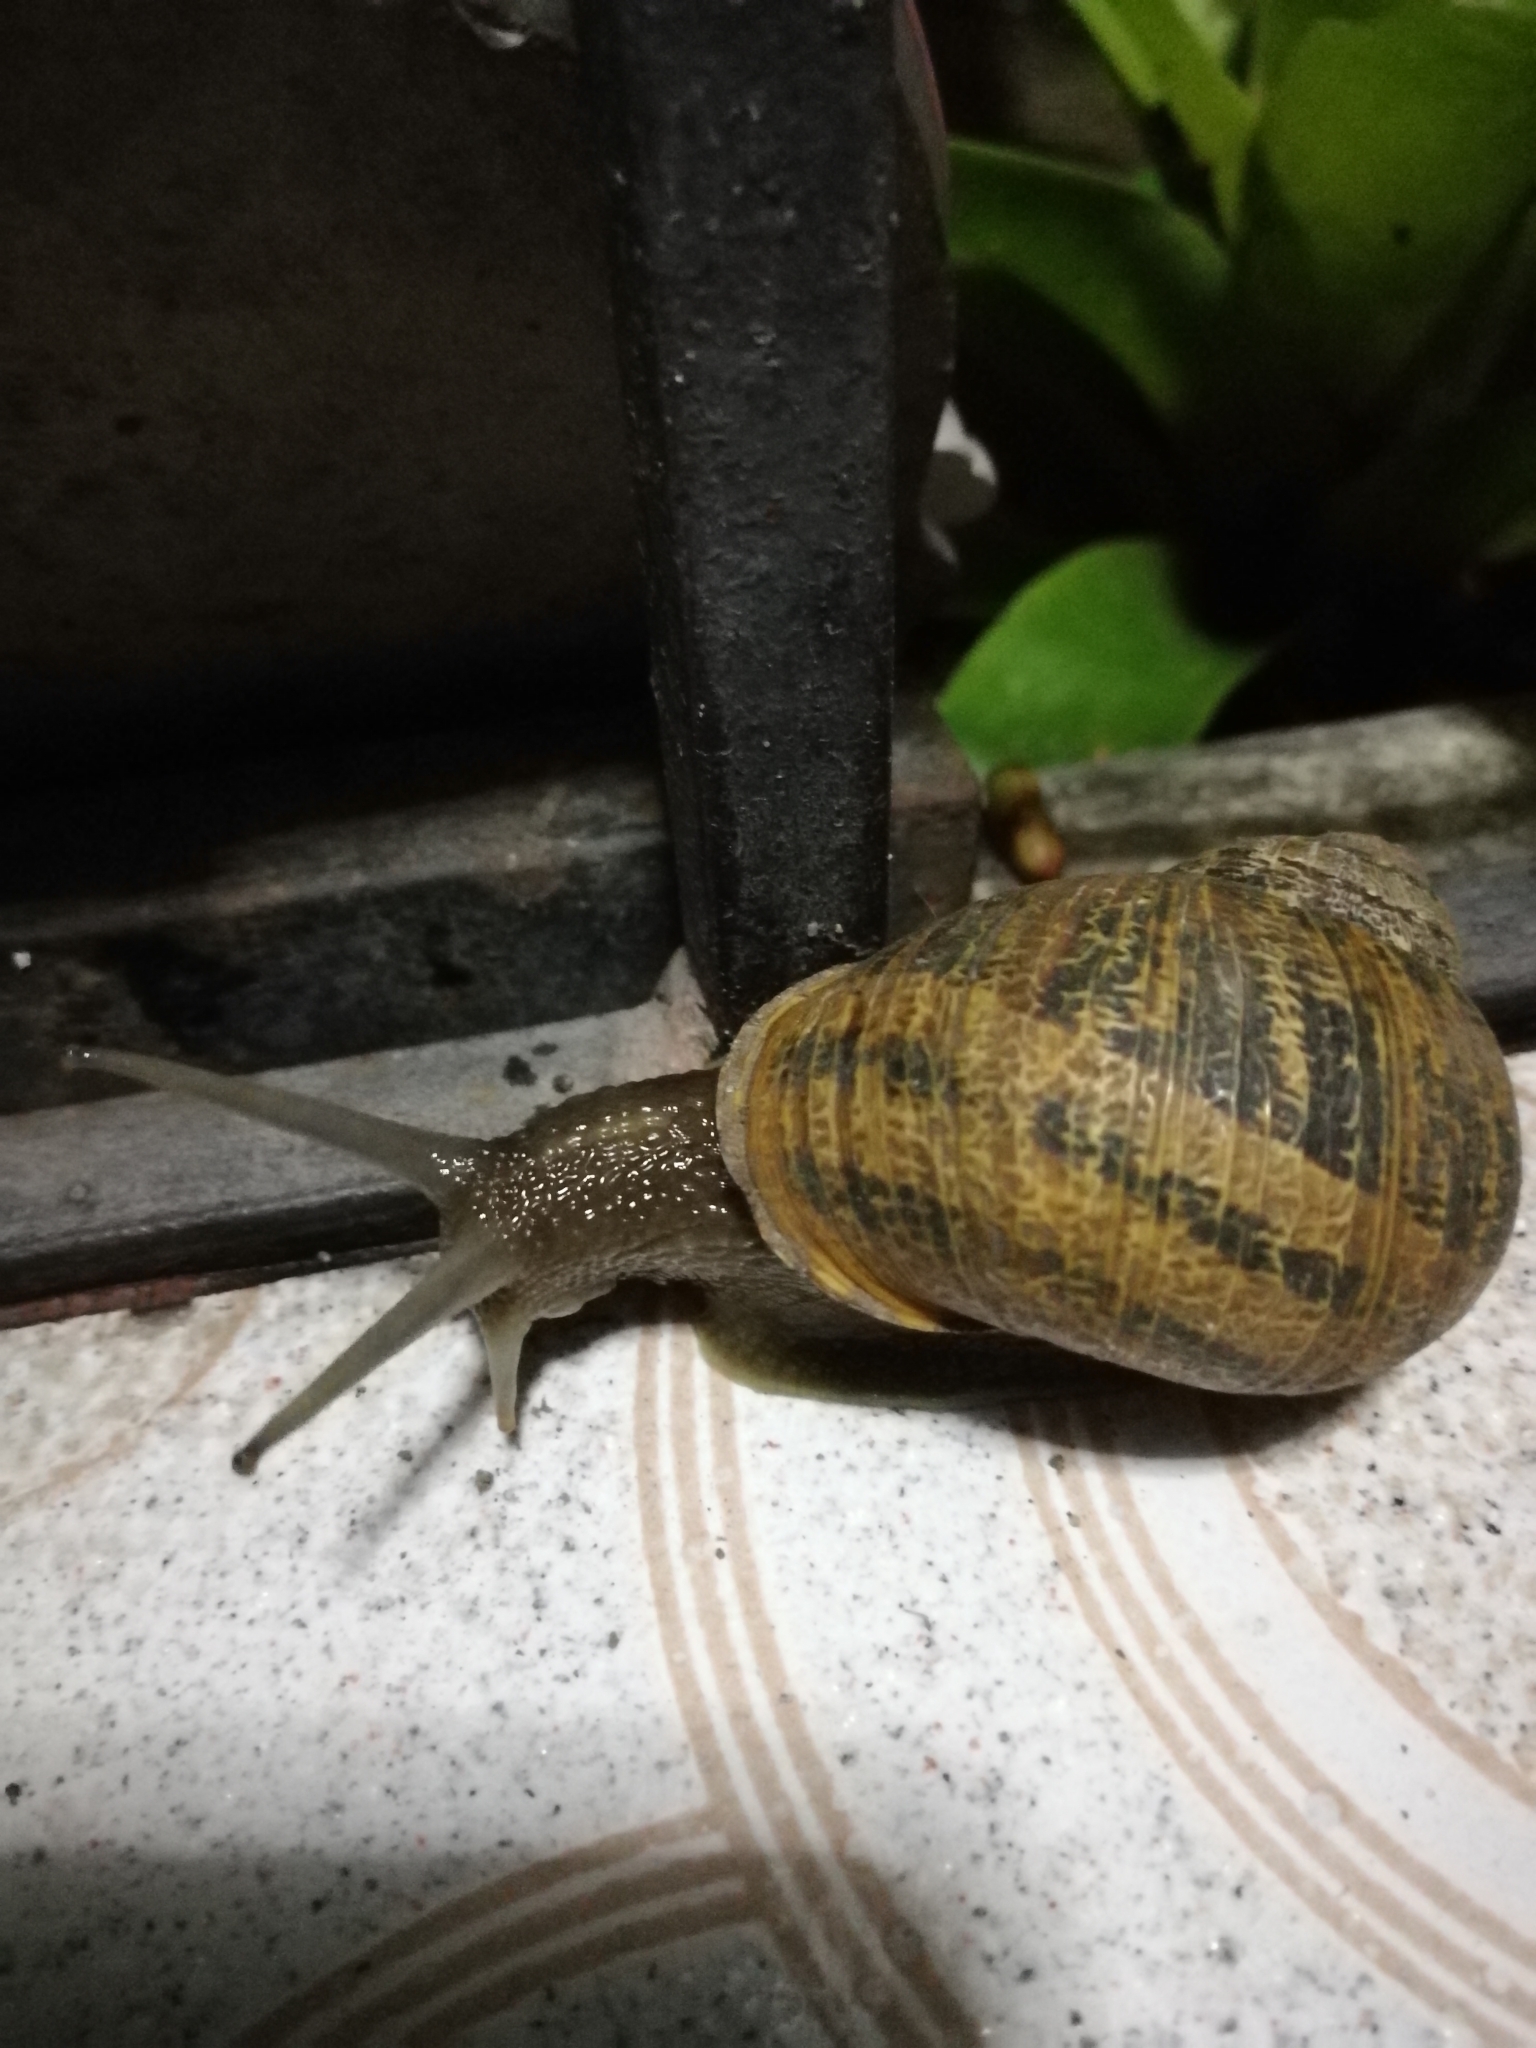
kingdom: Animalia
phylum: Mollusca
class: Gastropoda
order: Stylommatophora
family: Helicidae
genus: Cornu
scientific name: Cornu aspersum
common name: Brown garden snail
